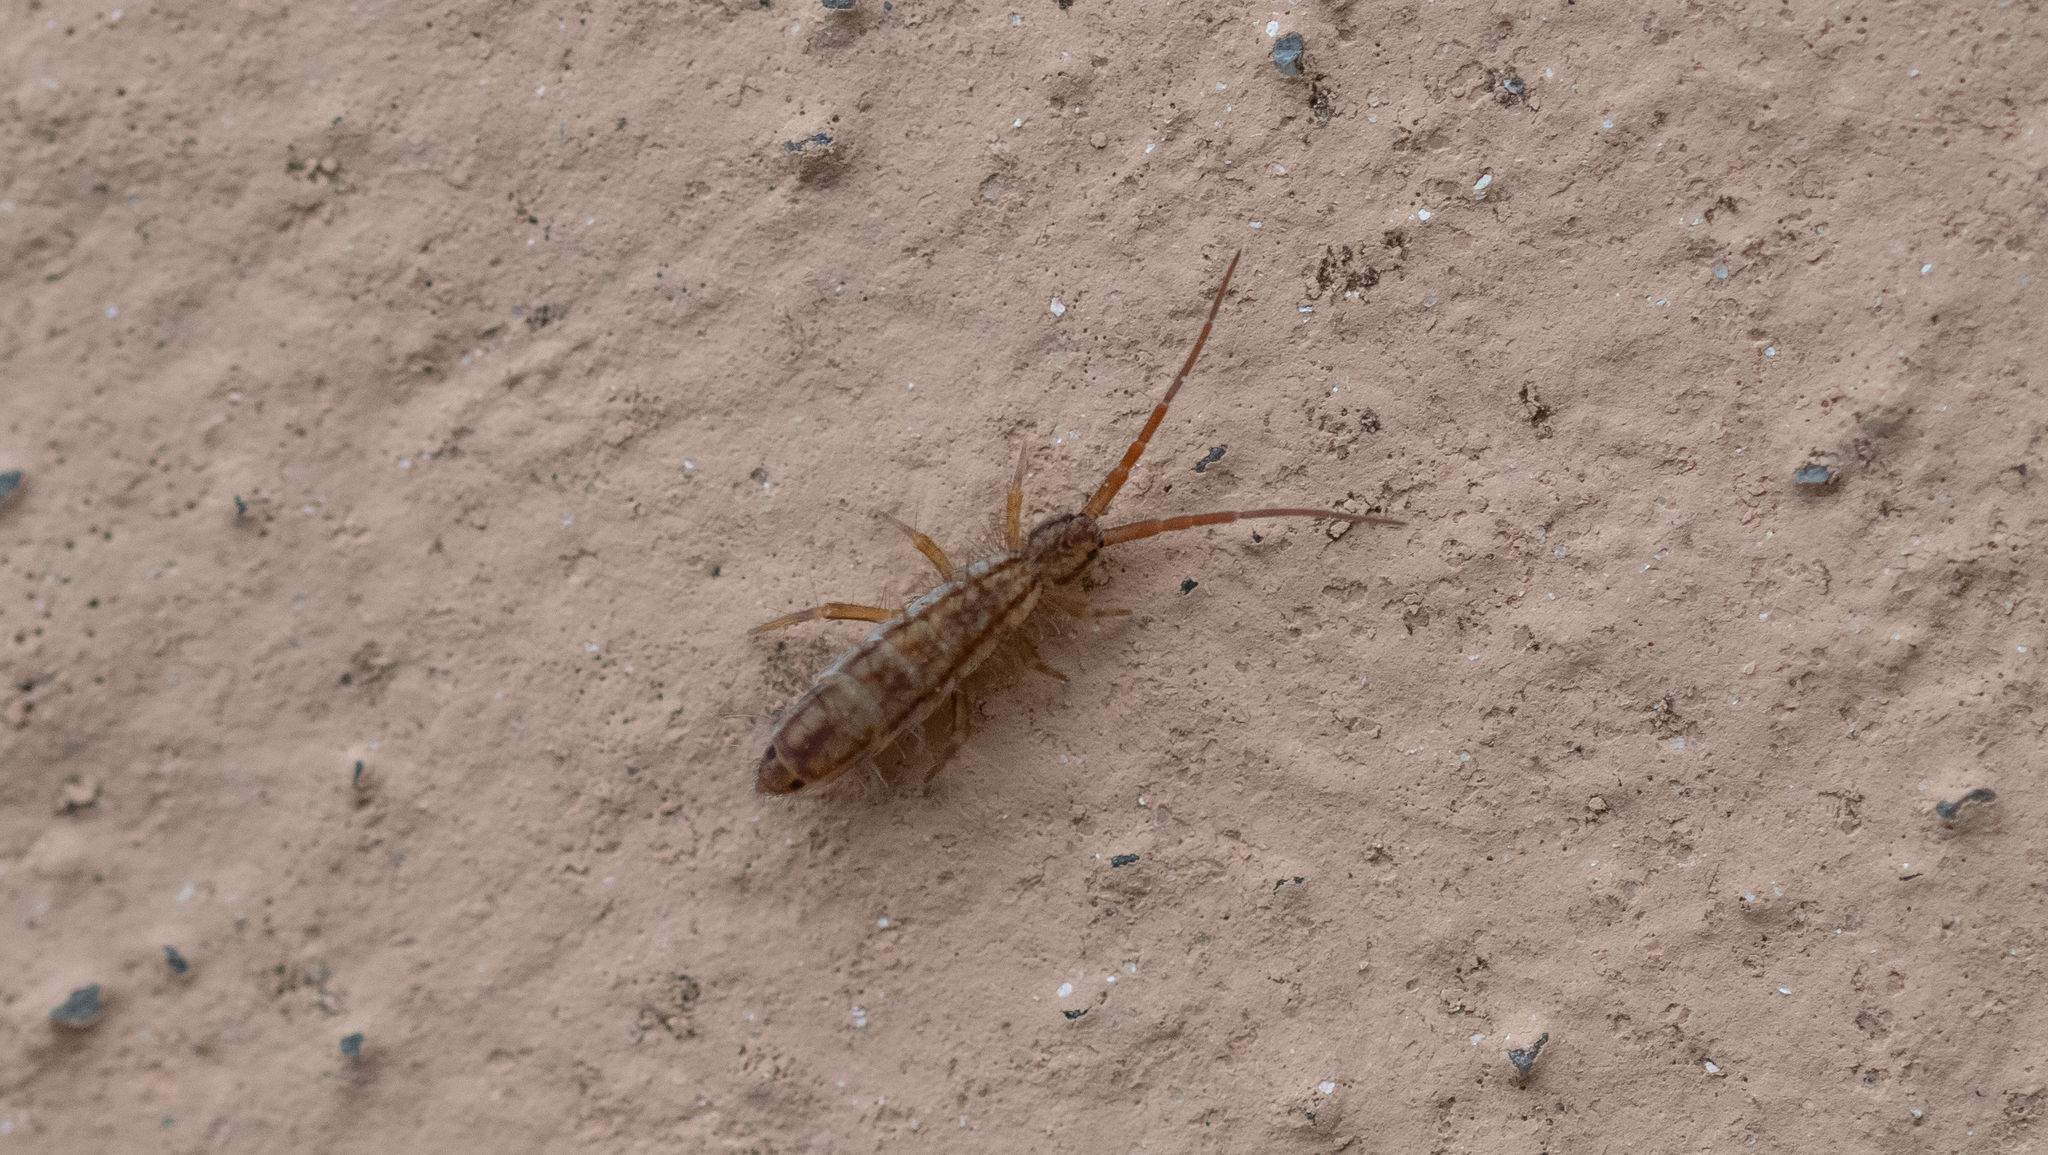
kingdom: Animalia
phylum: Arthropoda
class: Collembola
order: Entomobryomorpha
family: Entomobryidae
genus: Entomobrya
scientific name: Entomobrya nivalis
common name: Cosmopolitan springtail
